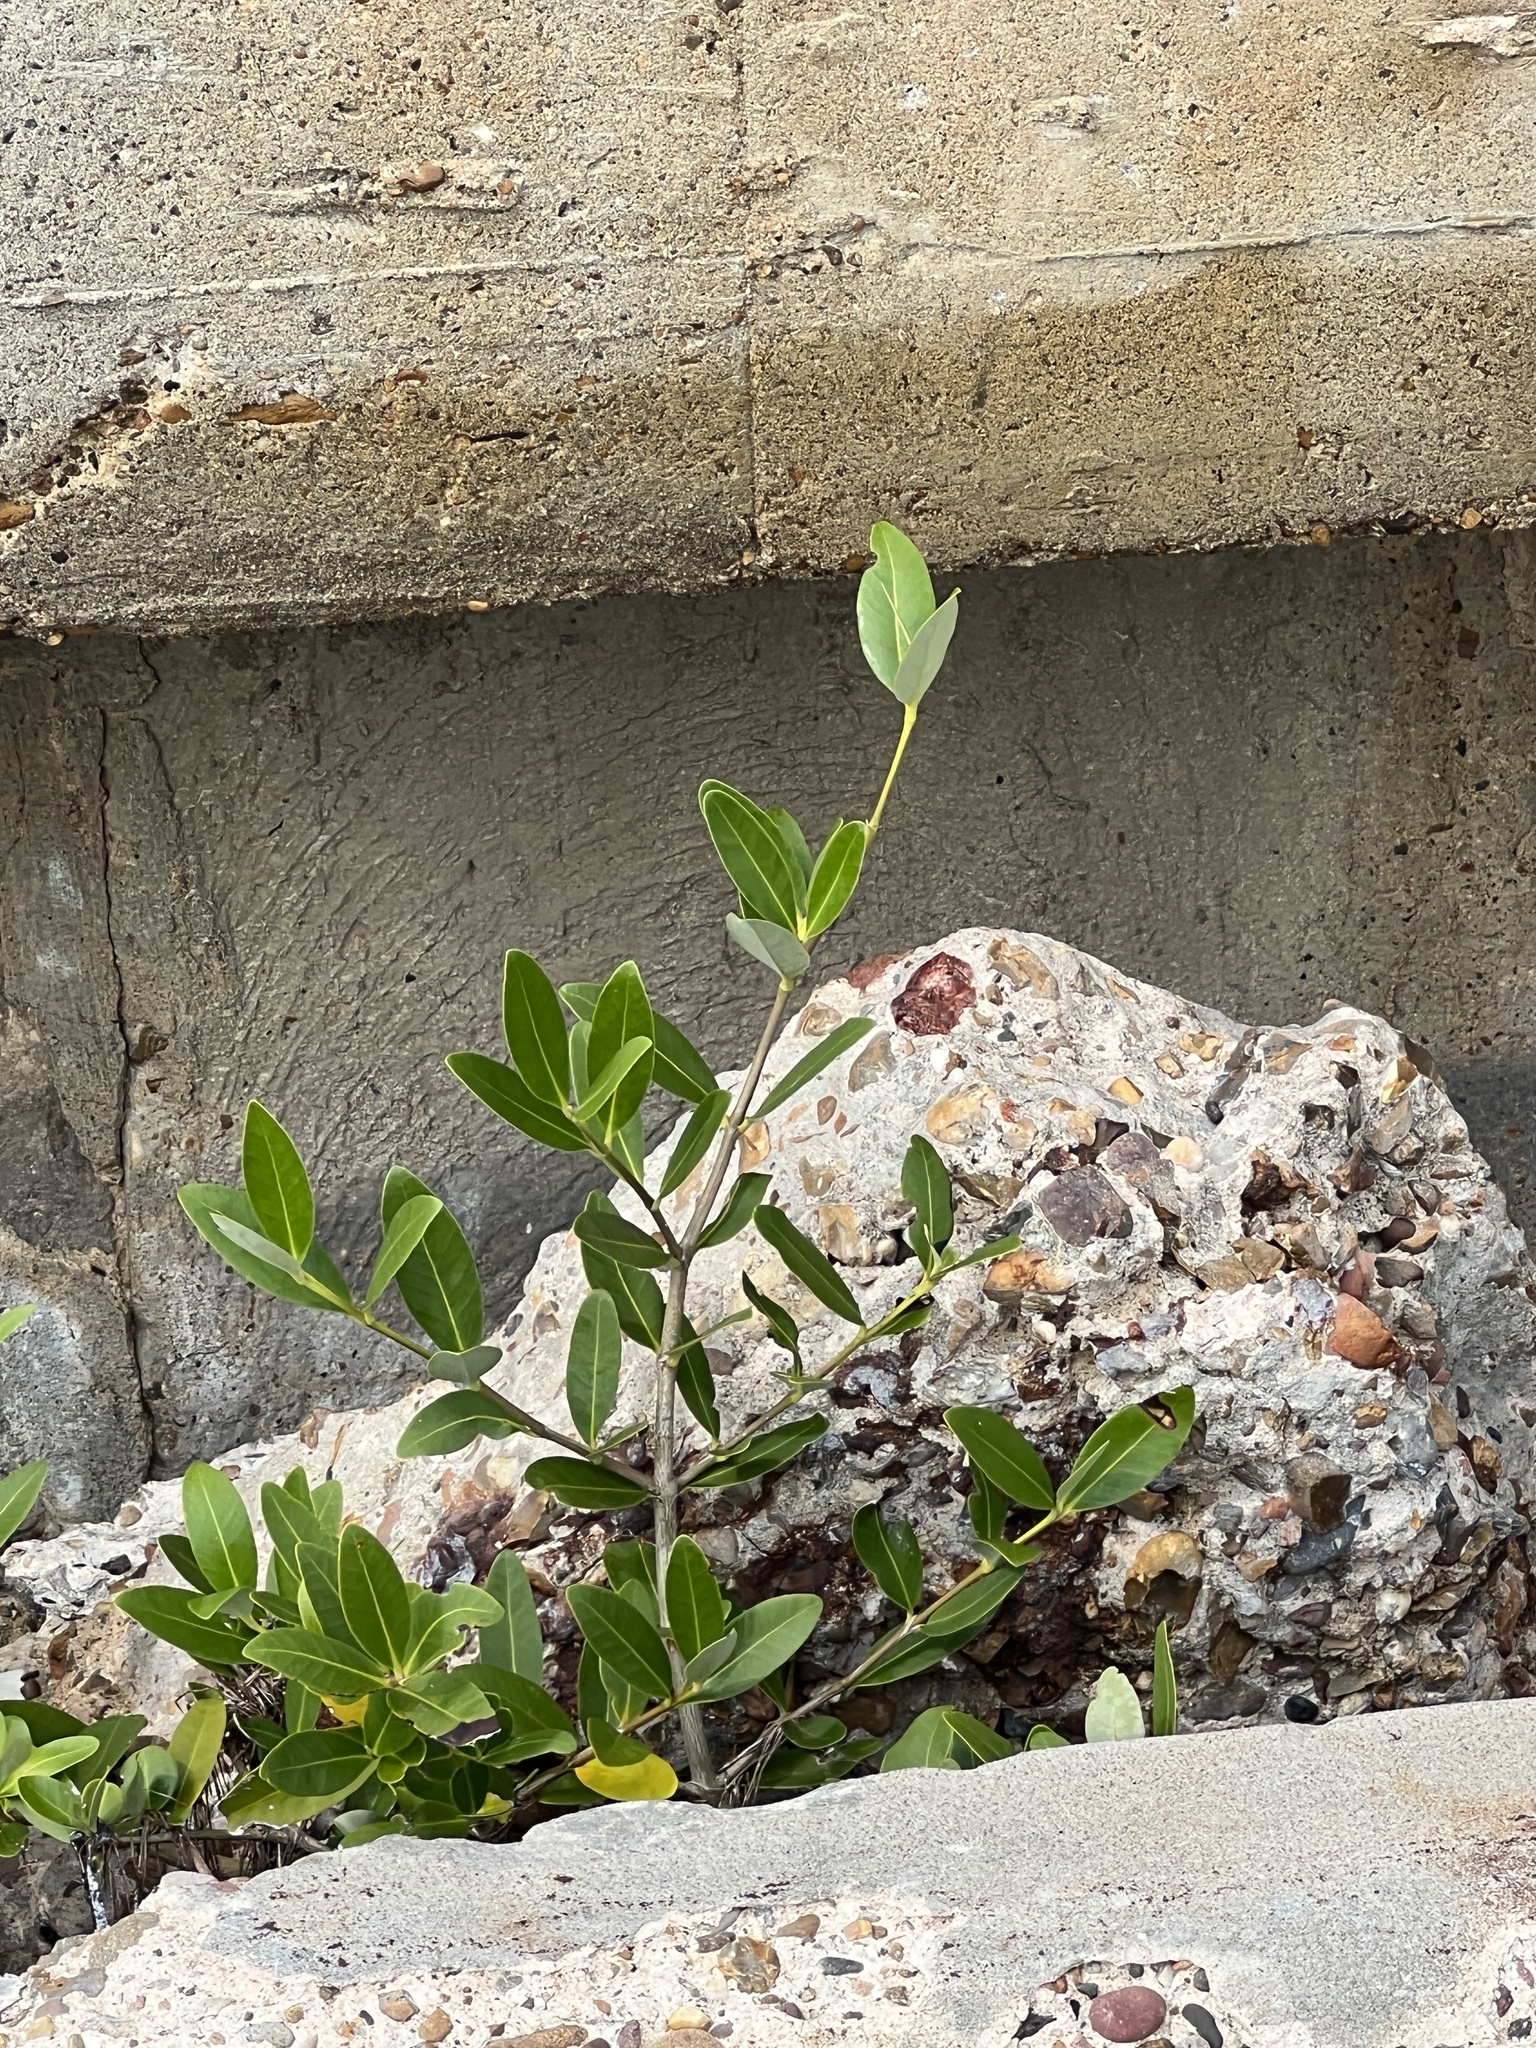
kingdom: Plantae
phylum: Tracheophyta
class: Magnoliopsida
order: Lamiales
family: Acanthaceae
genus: Avicennia
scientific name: Avicennia germinans
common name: Black mangrove
